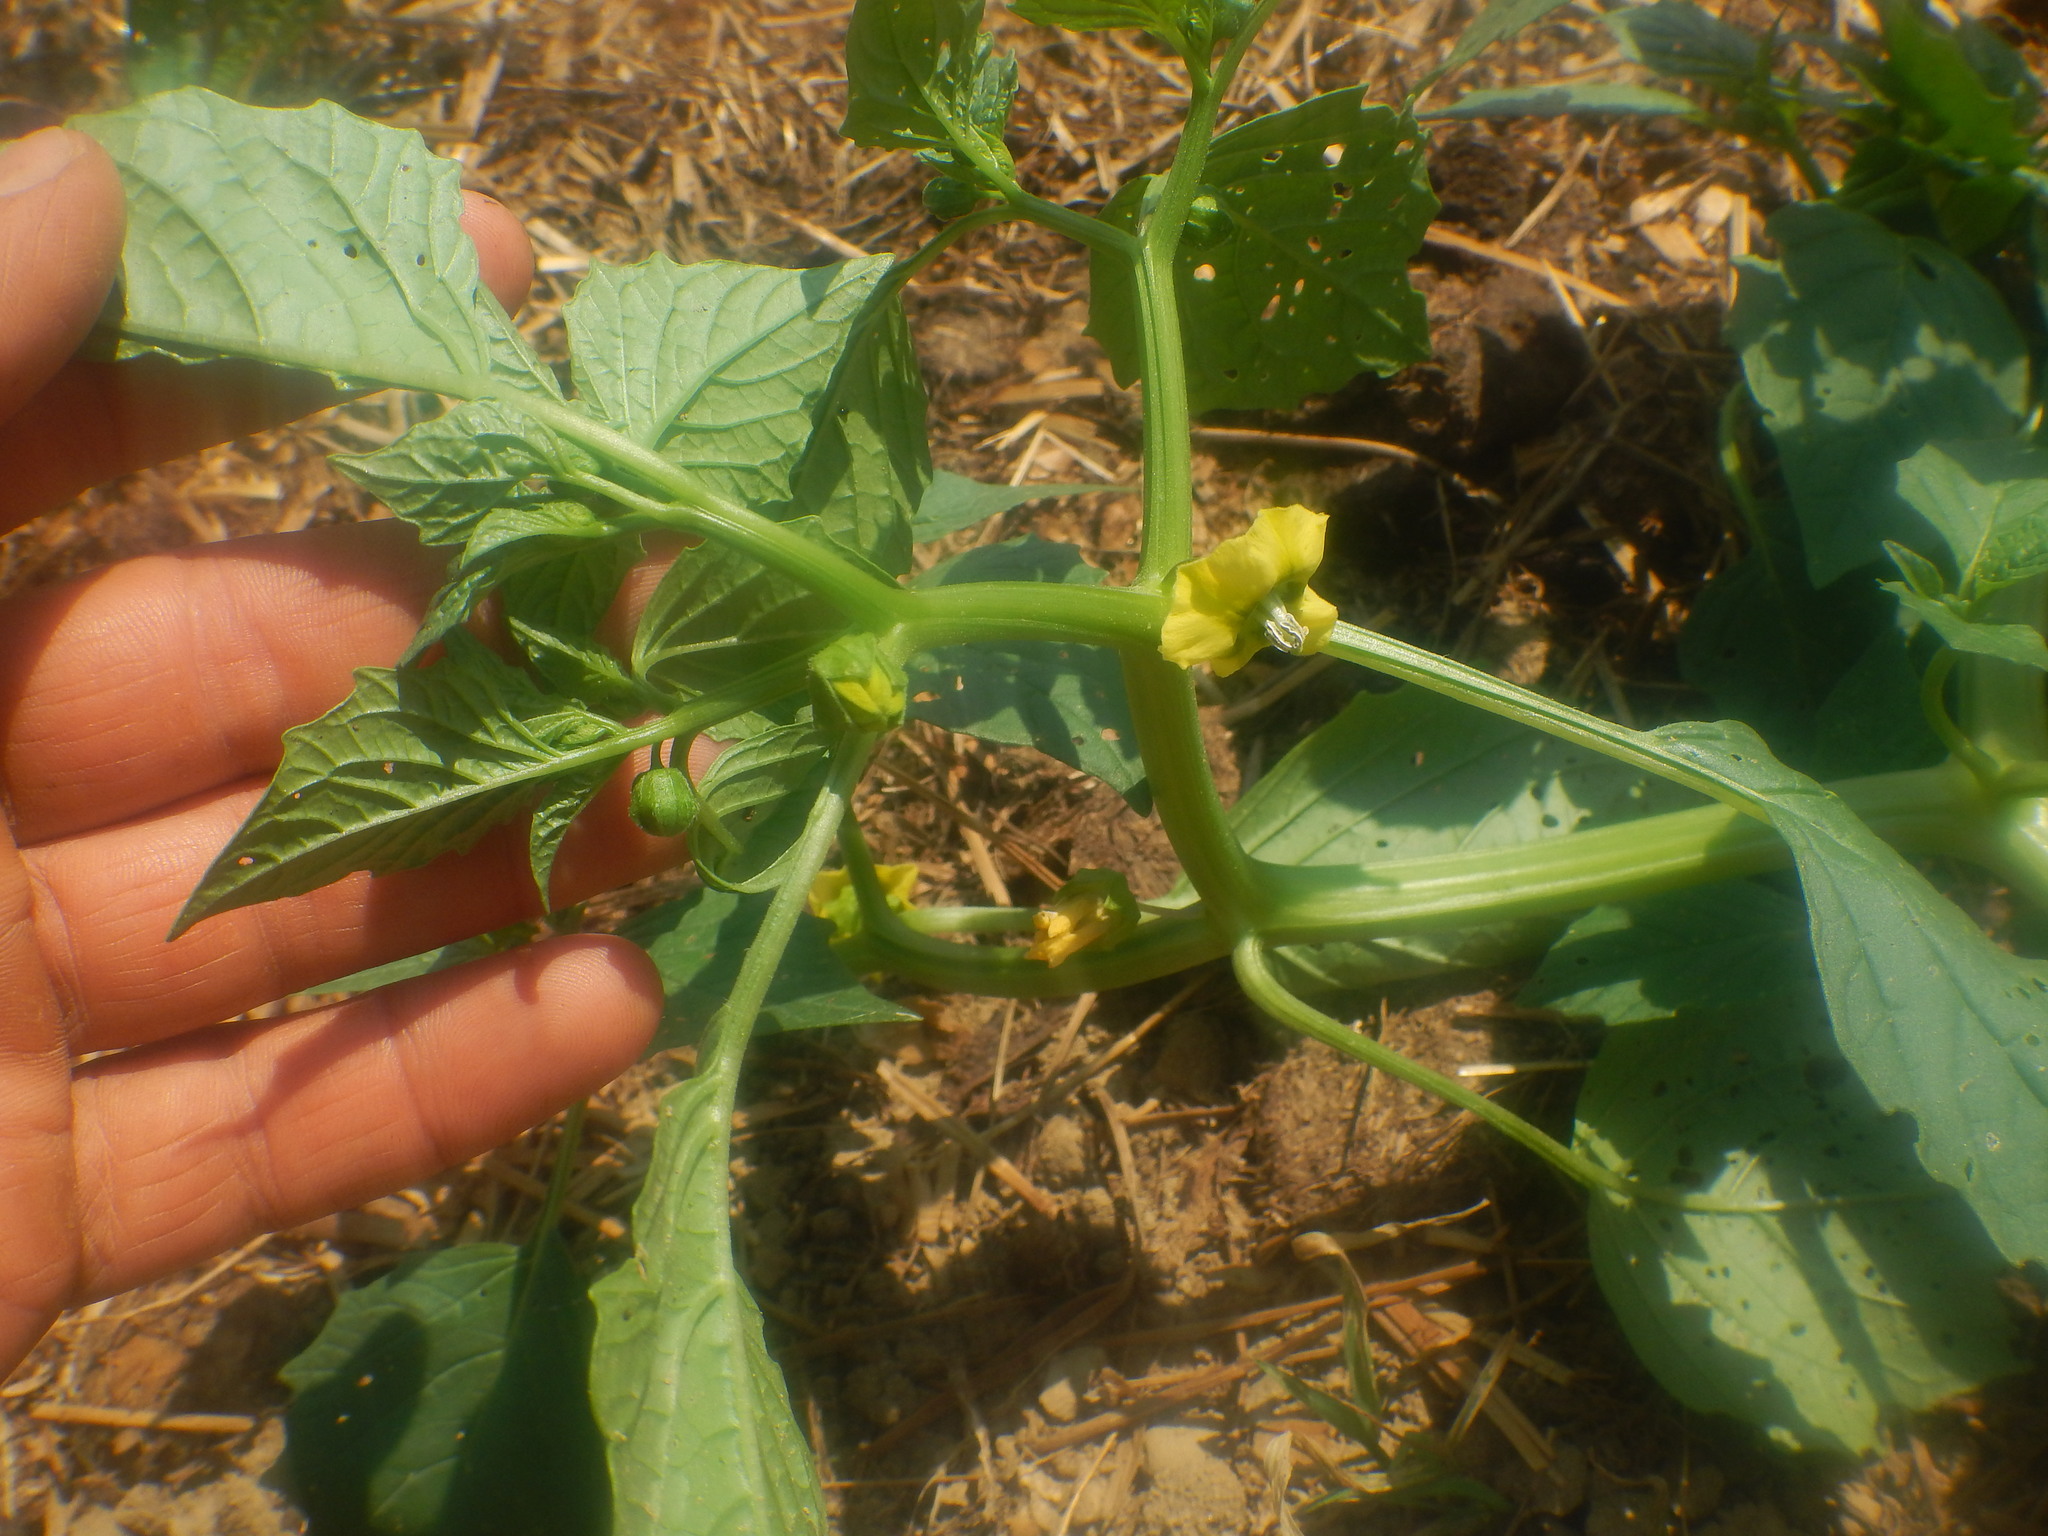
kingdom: Plantae
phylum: Tracheophyta
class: Magnoliopsida
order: Solanales
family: Solanaceae
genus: Physalis
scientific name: Physalis philadelphica
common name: Husk-tomato
